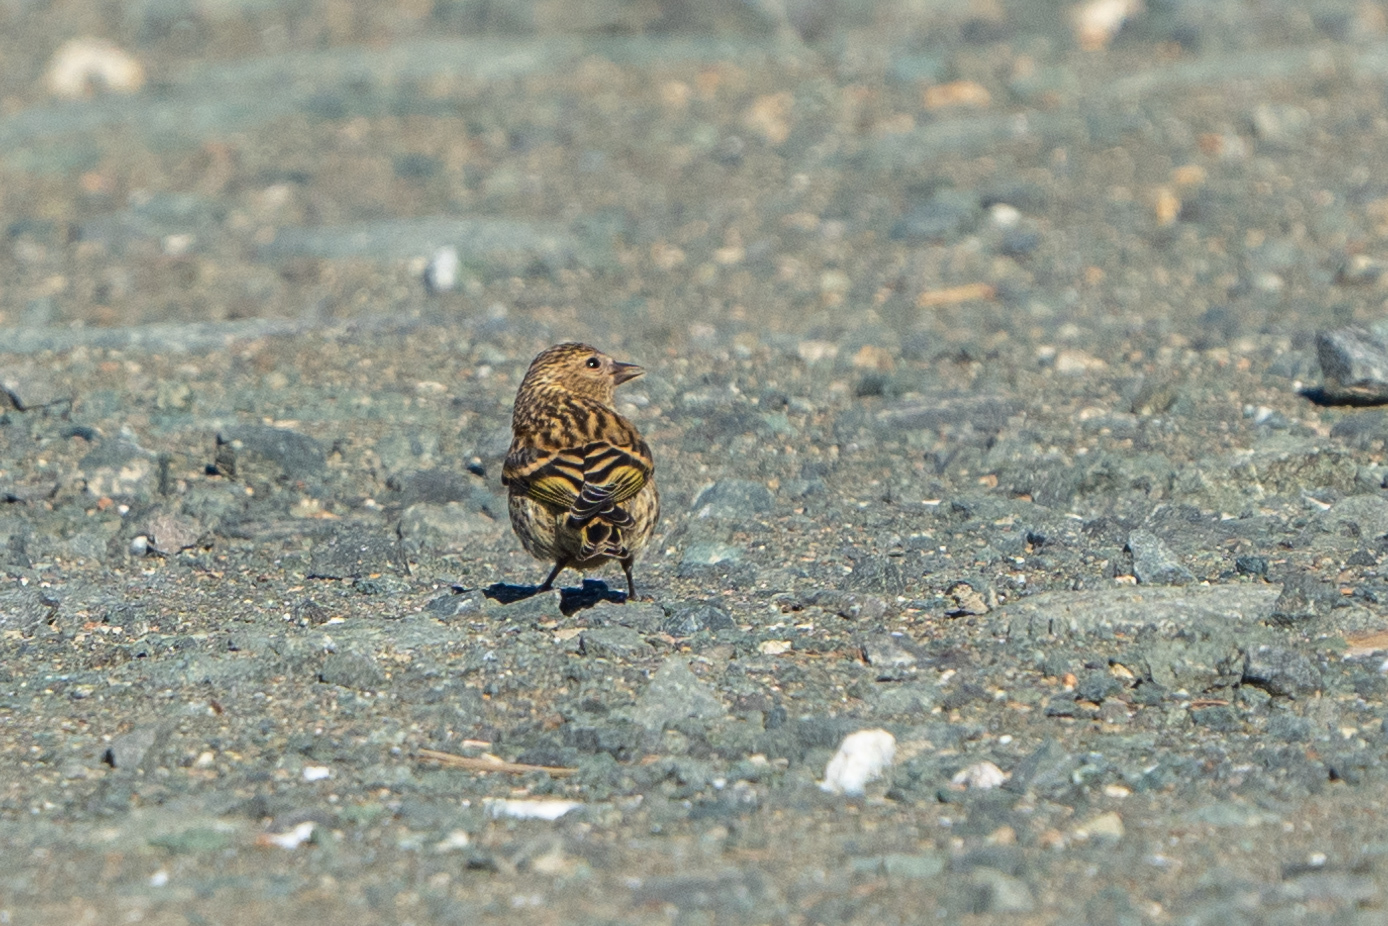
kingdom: Animalia
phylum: Chordata
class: Aves
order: Passeriformes
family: Fringillidae
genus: Spinus
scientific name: Spinus pinus
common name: Pine siskin
